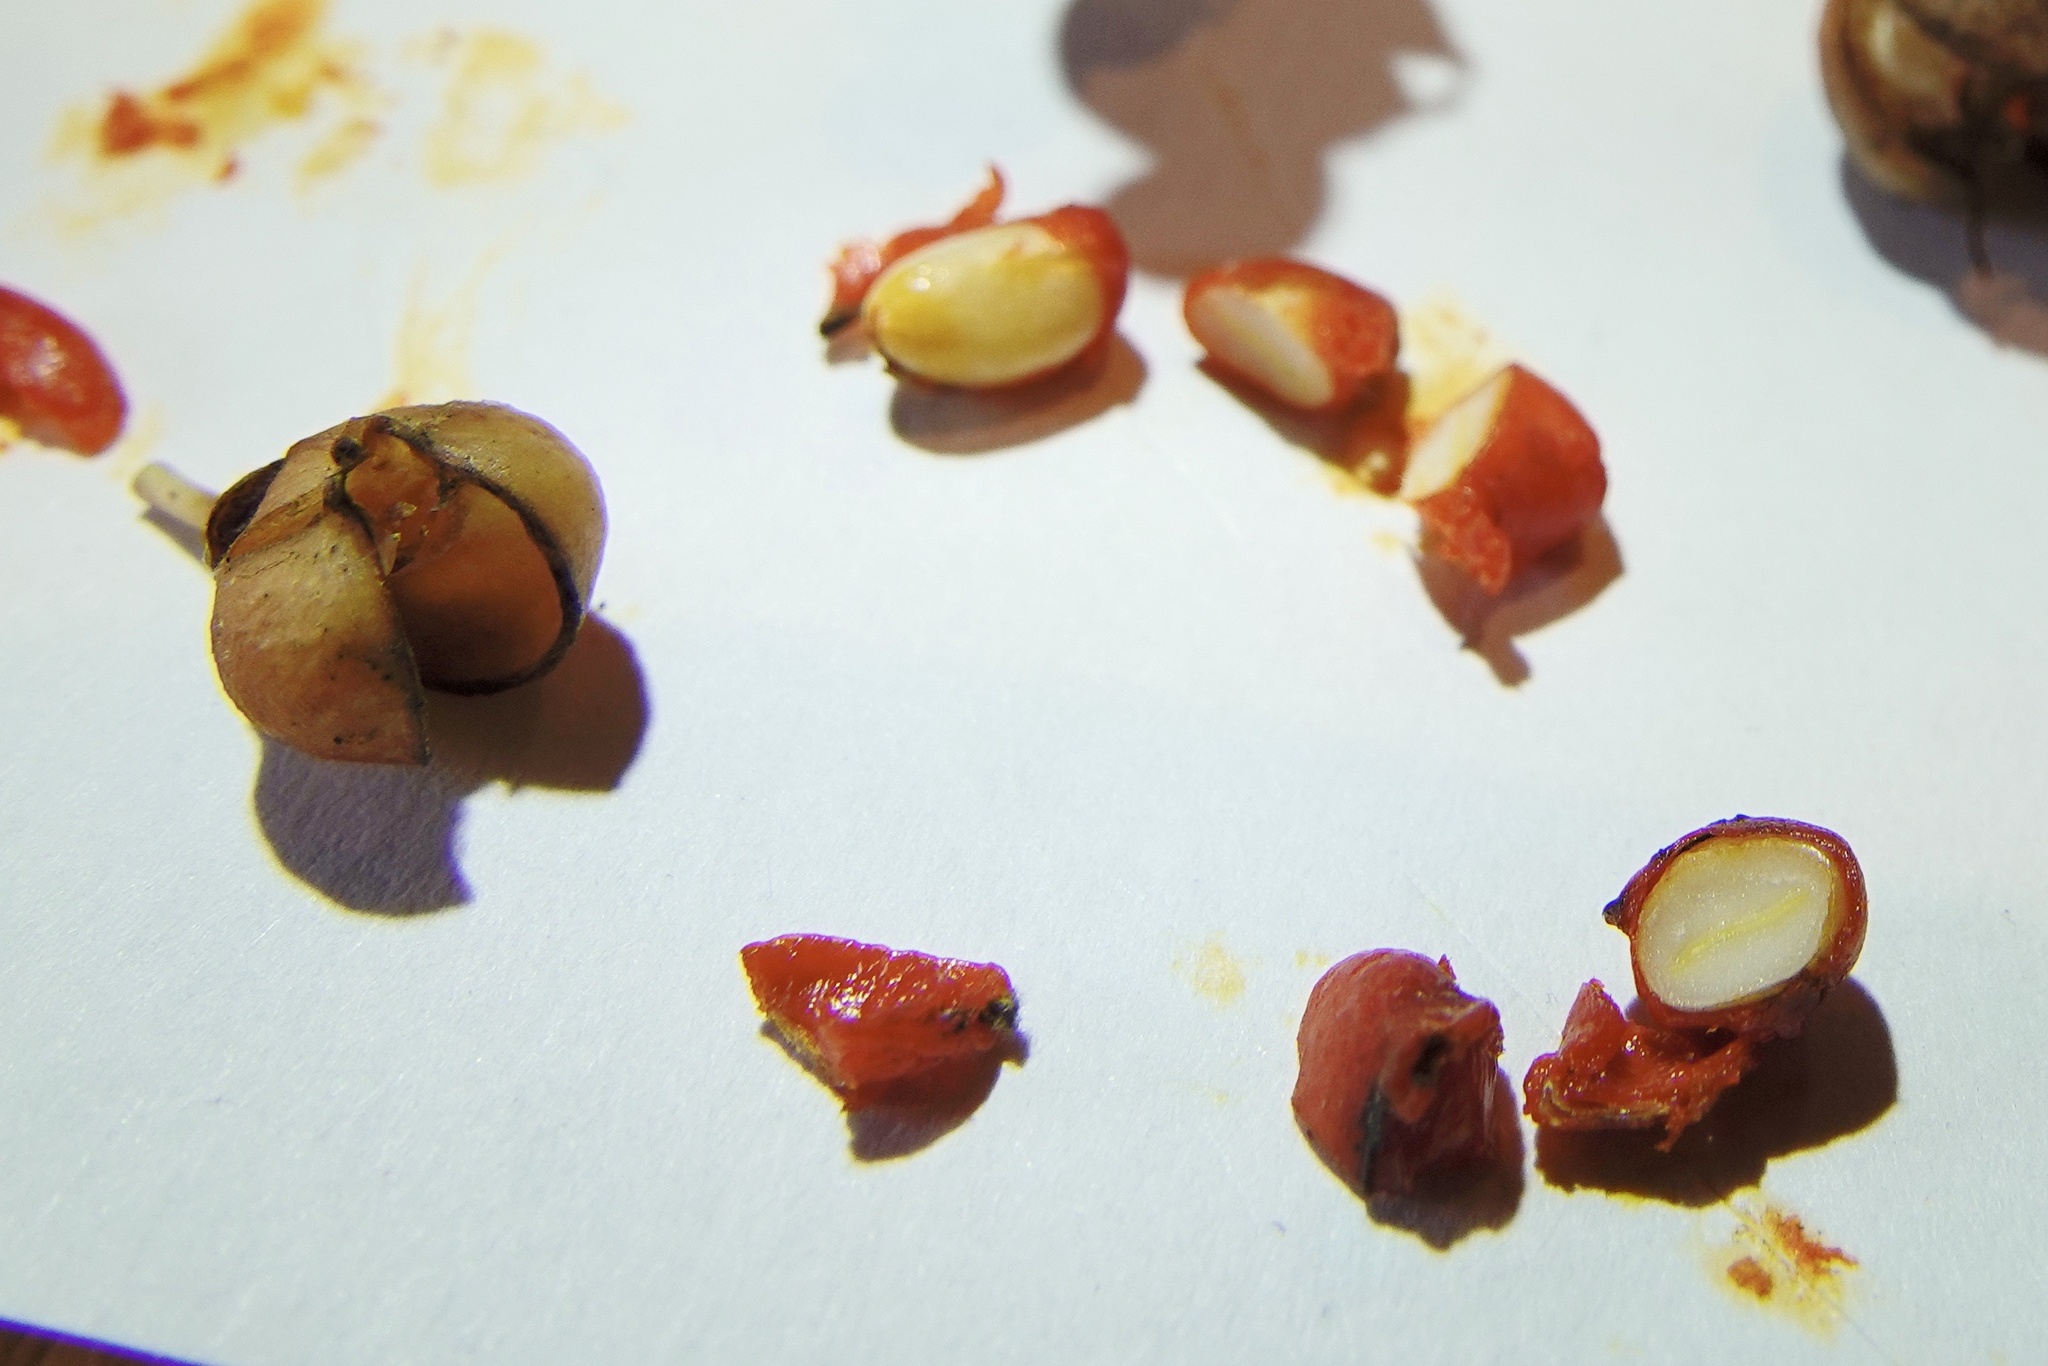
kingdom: Plantae
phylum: Tracheophyta
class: Magnoliopsida
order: Celastrales
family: Celastraceae
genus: Euonymus
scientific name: Euonymus fortunei
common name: Climbing euonymus
